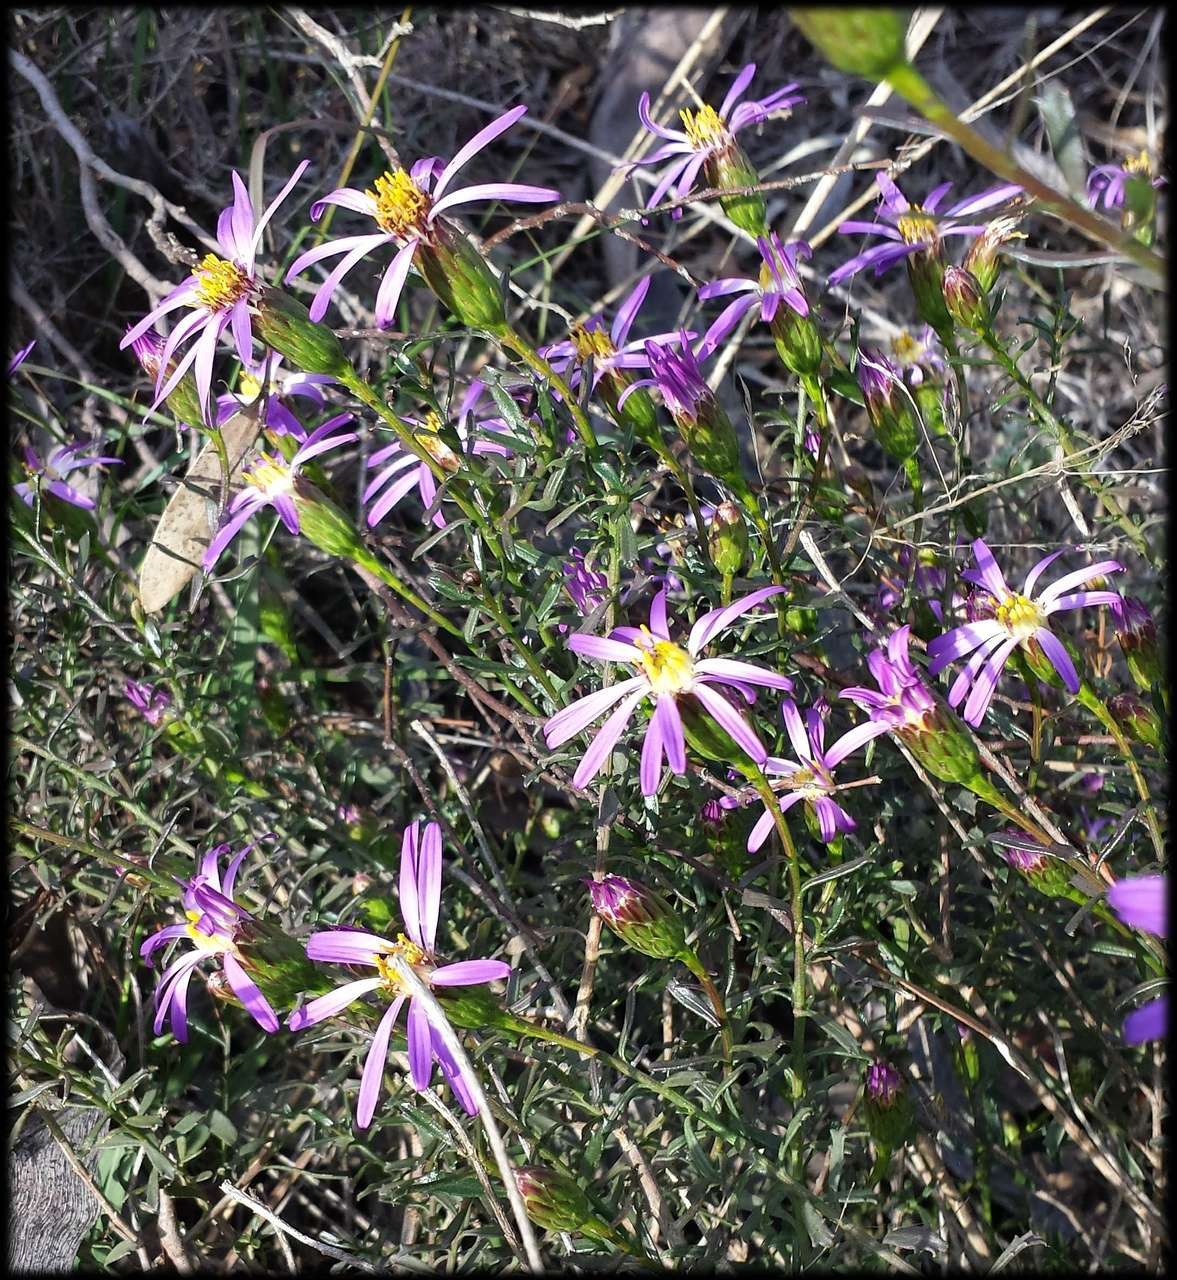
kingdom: Plantae
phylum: Tracheophyta
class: Magnoliopsida
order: Asterales
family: Asteraceae
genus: Walsholaria
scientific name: Walsholaria magniflora
